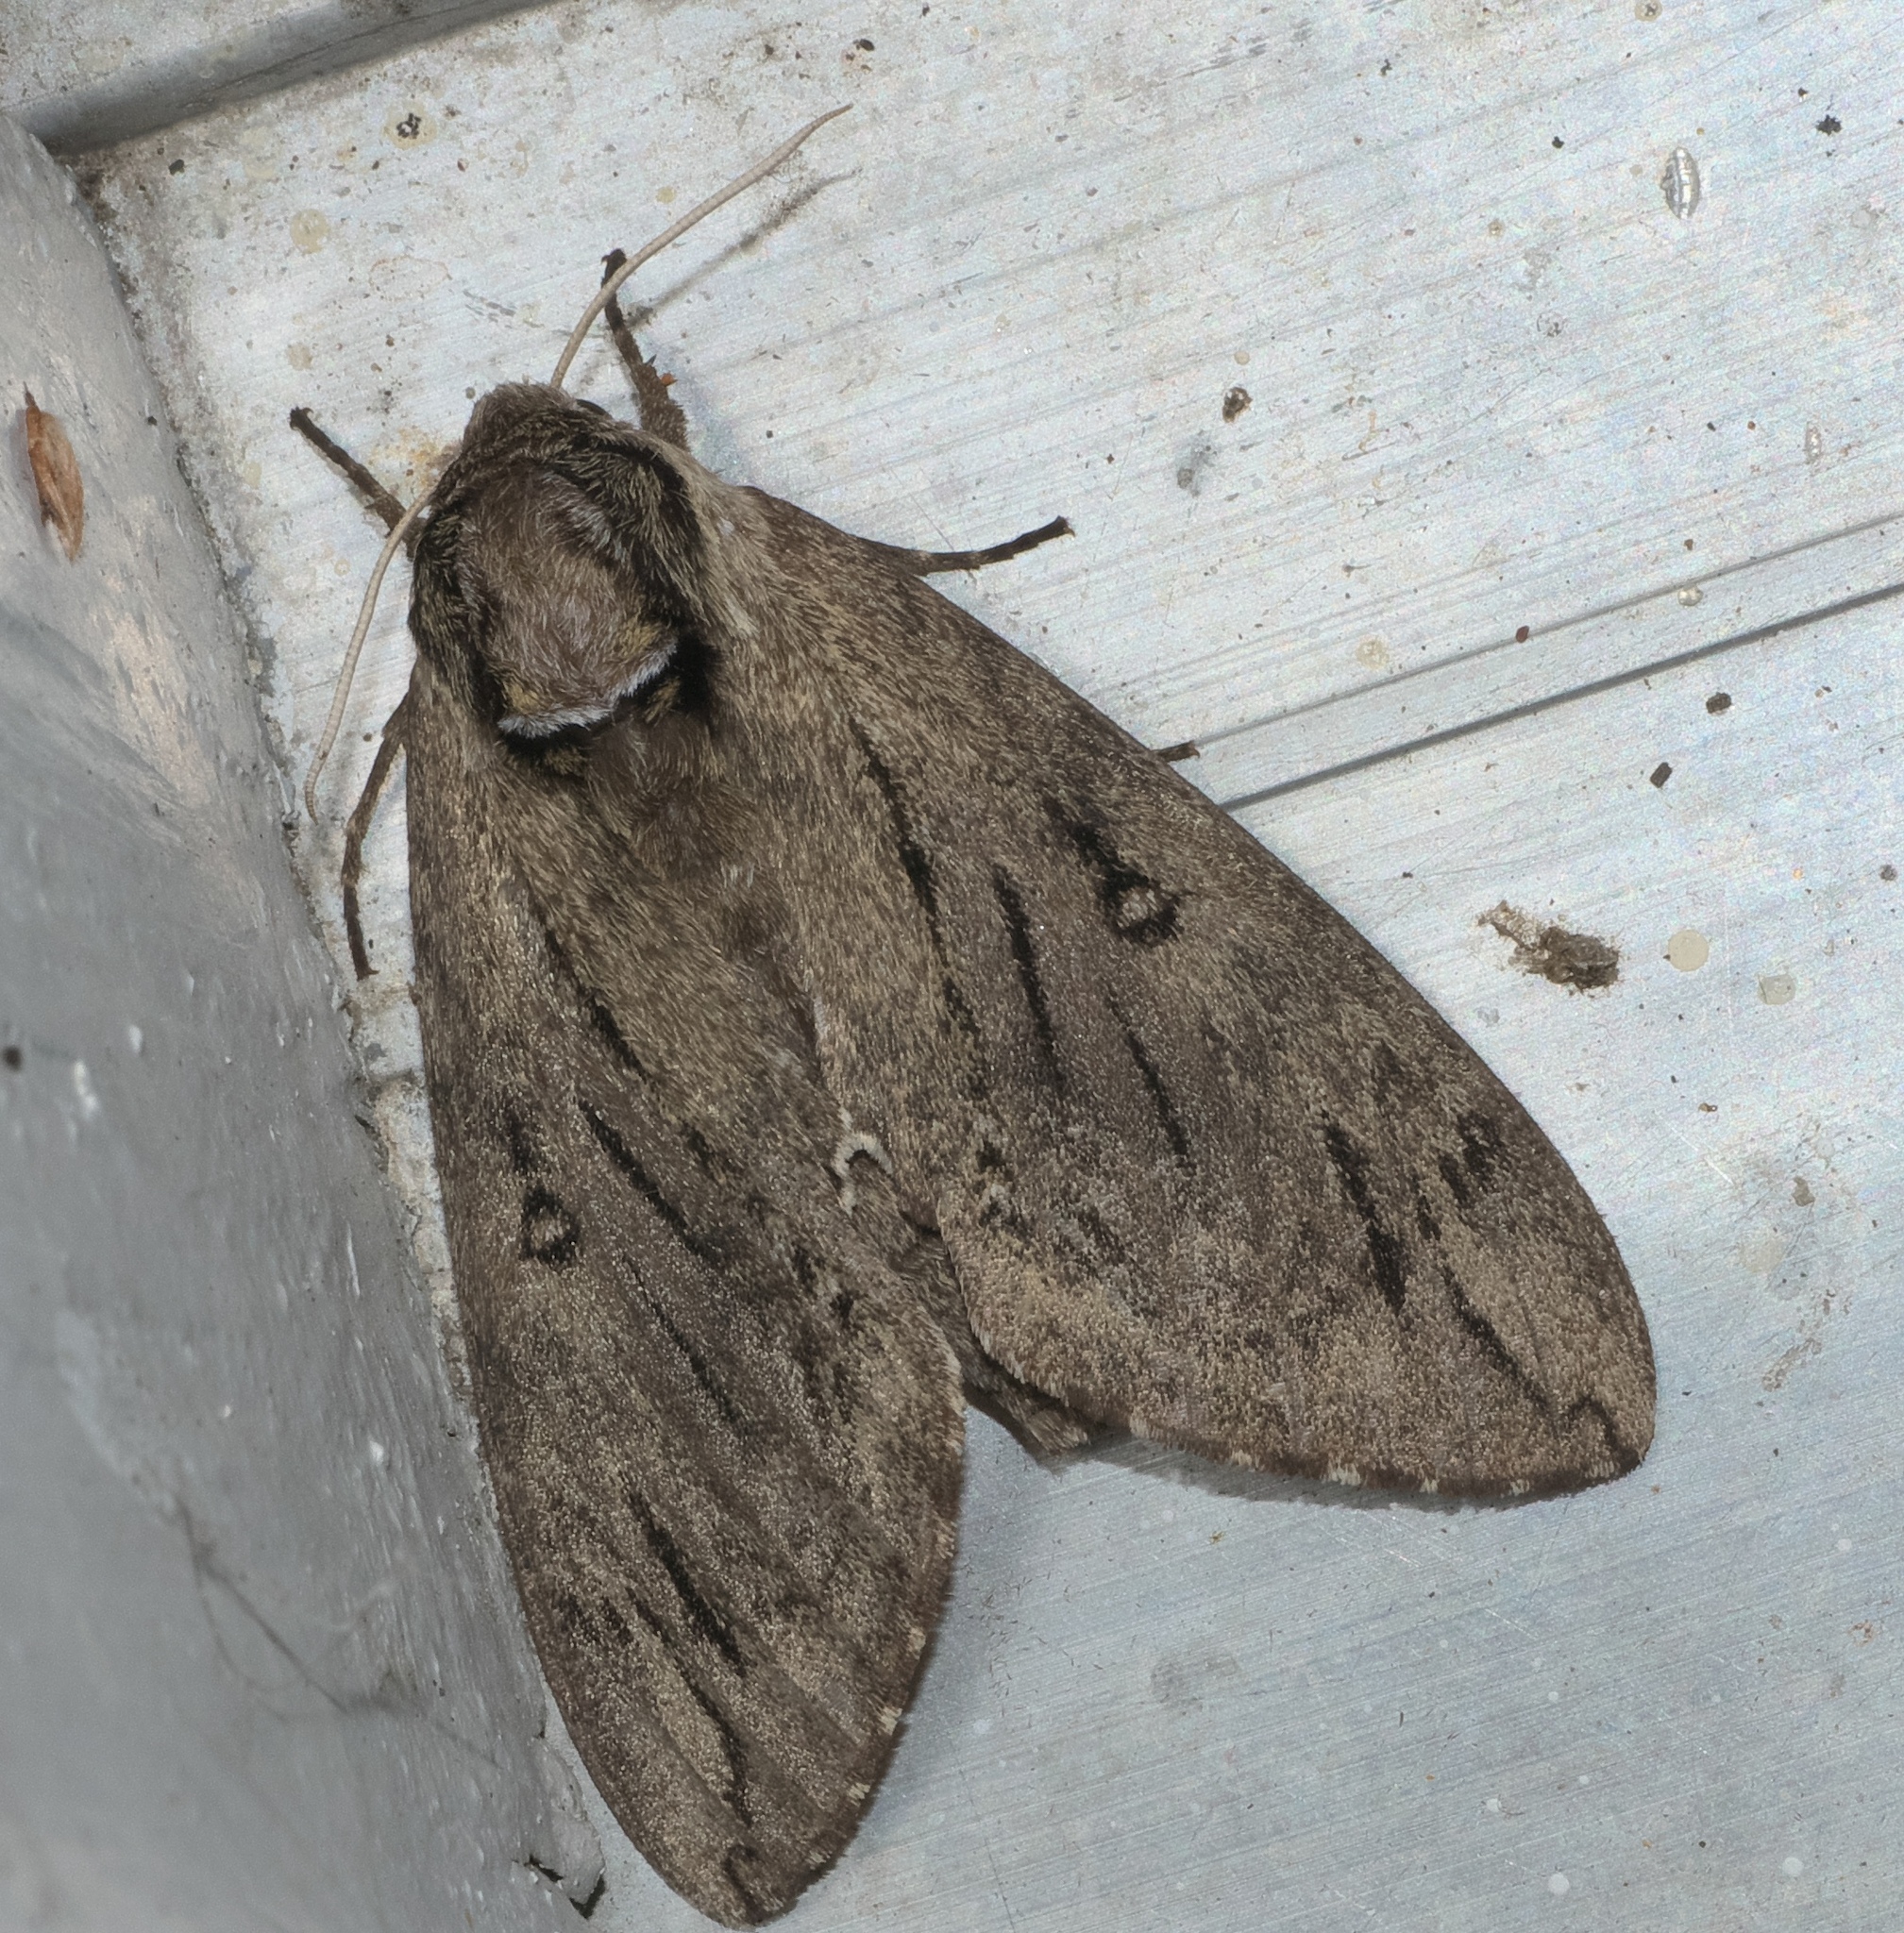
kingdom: Animalia
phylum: Arthropoda
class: Insecta
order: Lepidoptera
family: Sphingidae
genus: Ceratomia
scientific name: Ceratomia catalpae
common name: Catalpa hornworm
